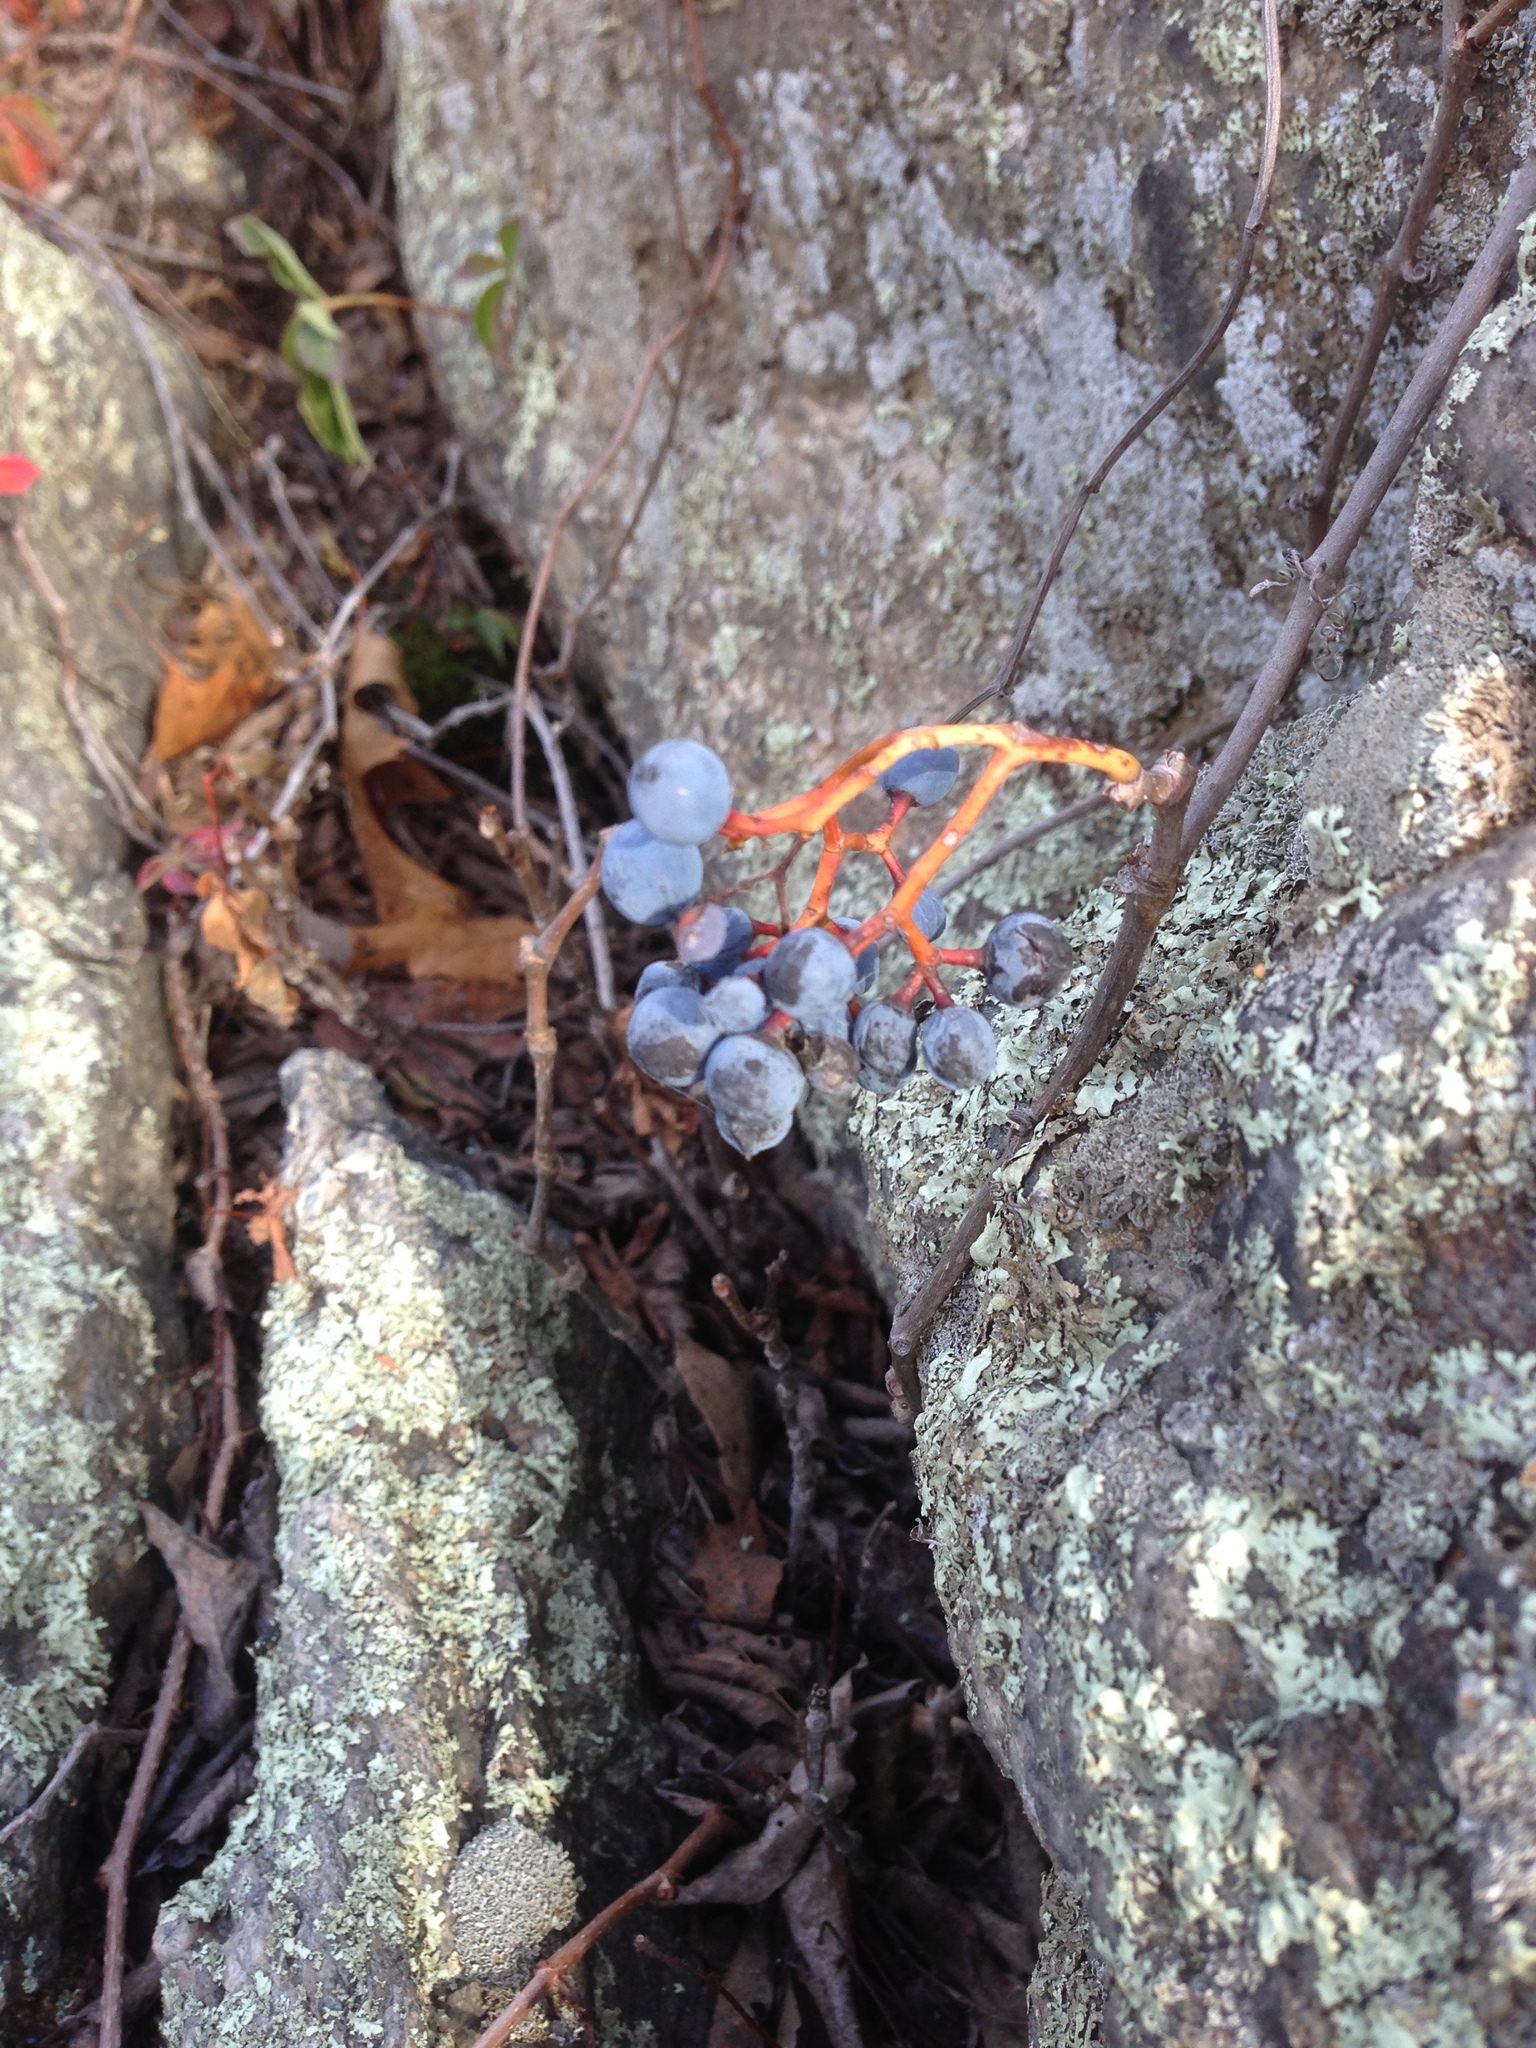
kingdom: Plantae
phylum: Tracheophyta
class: Magnoliopsida
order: Vitales
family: Vitaceae
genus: Parthenocissus
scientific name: Parthenocissus quinquefolia
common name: Virginia-creeper
